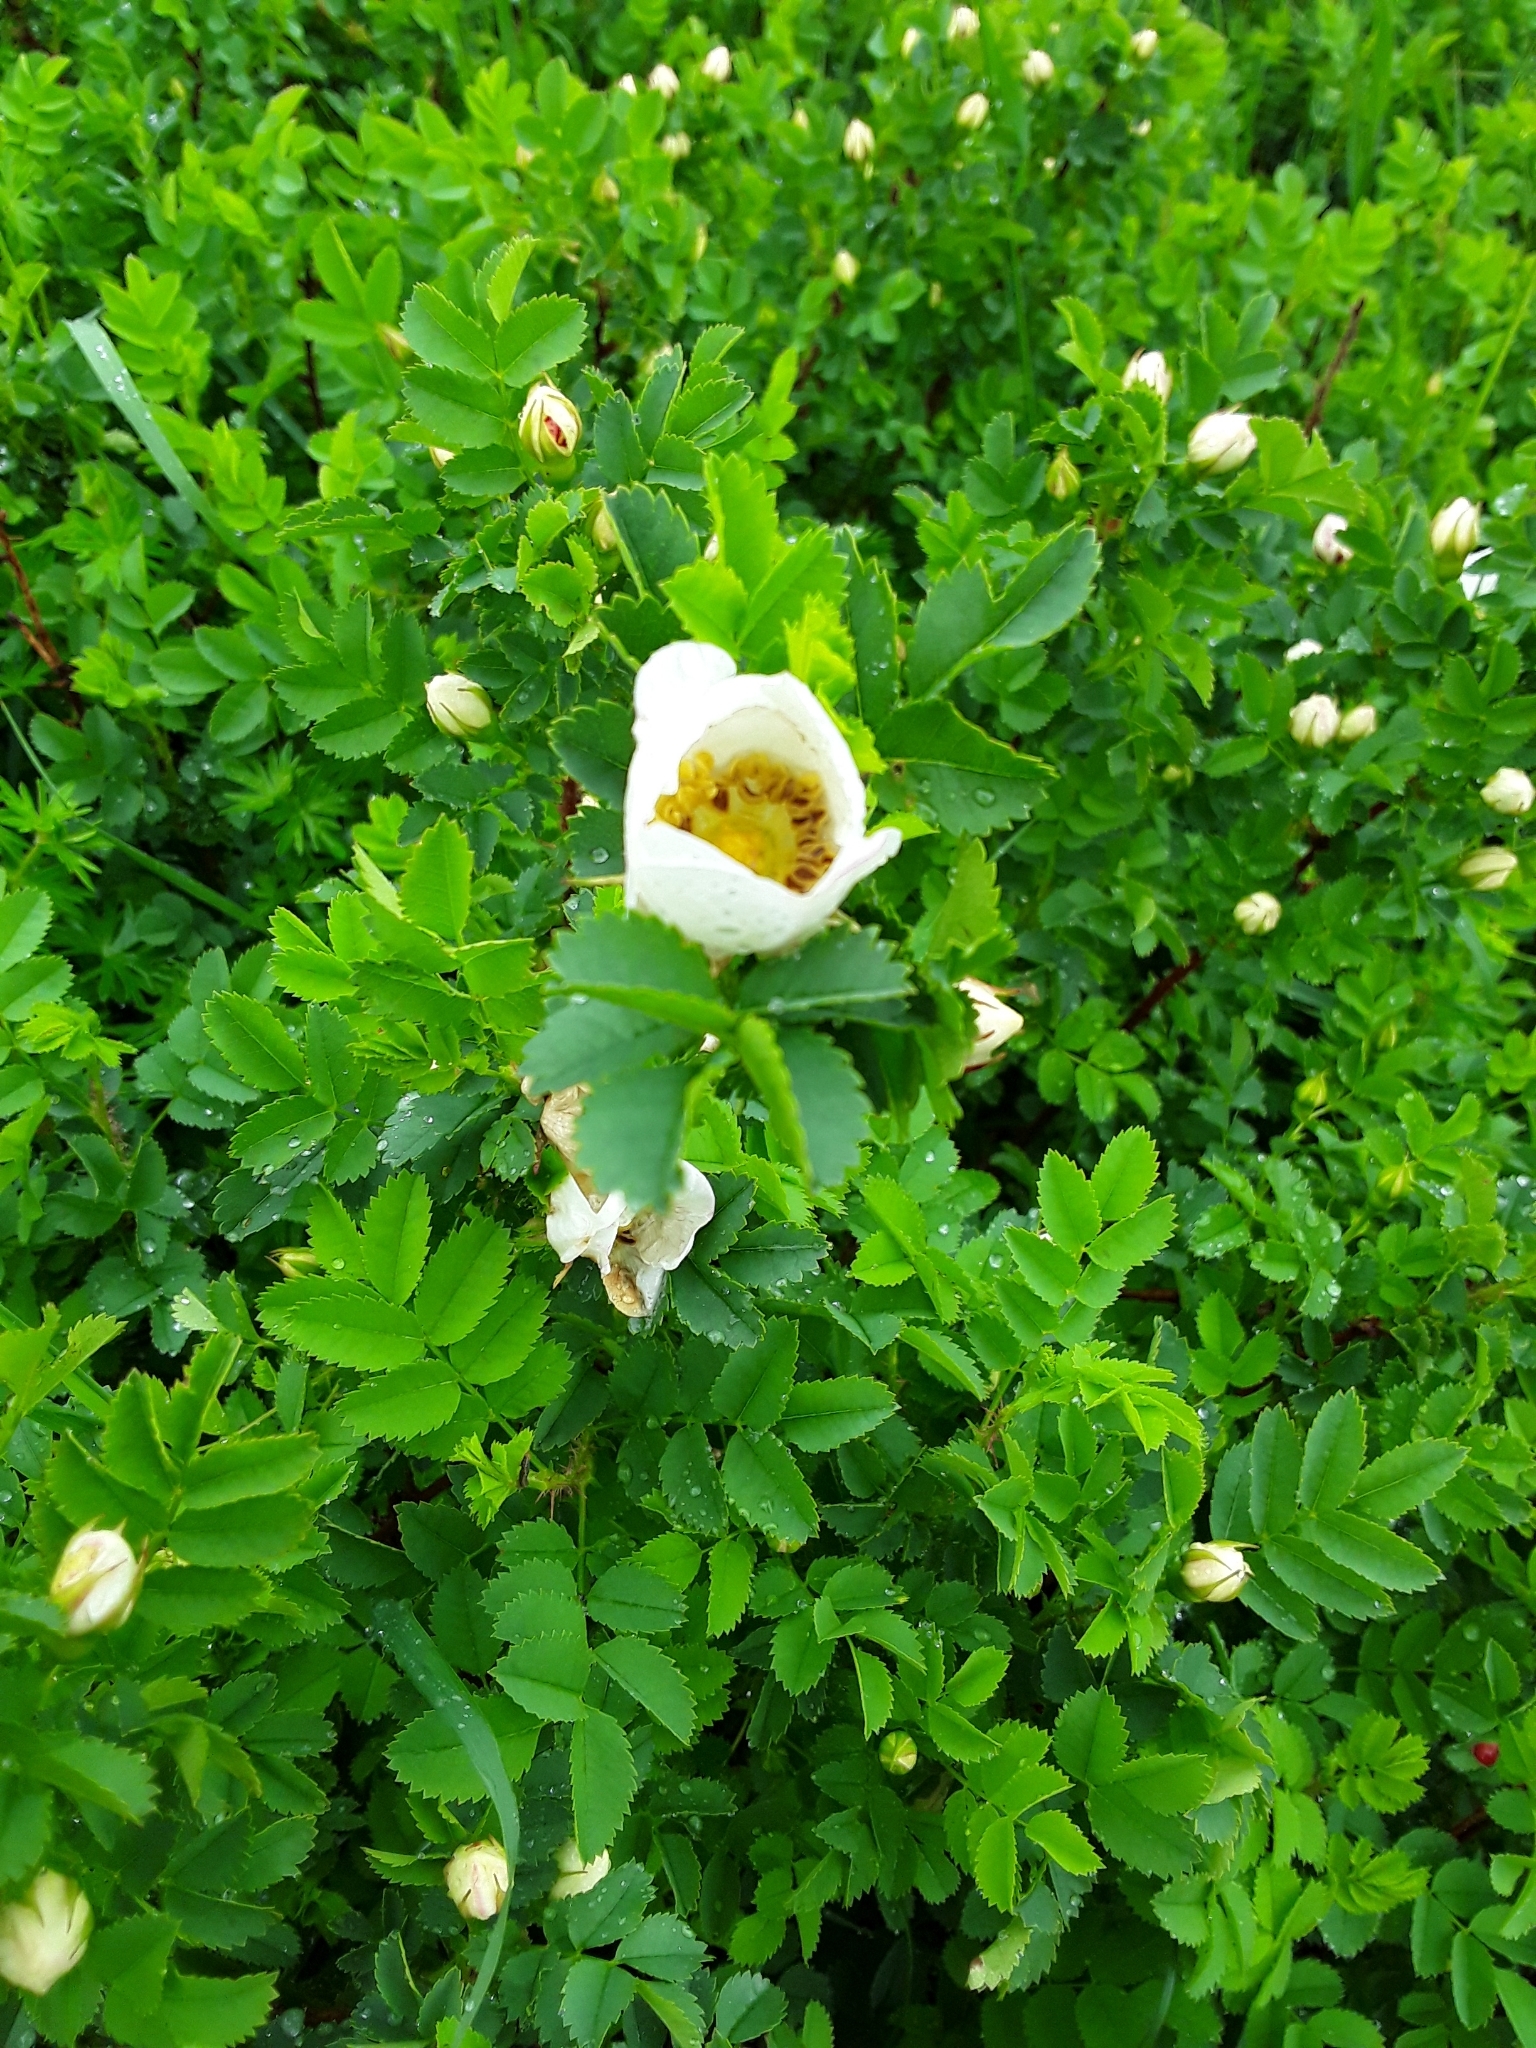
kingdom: Plantae
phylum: Tracheophyta
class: Magnoliopsida
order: Rosales
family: Rosaceae
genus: Rosa
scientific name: Rosa spinosissima
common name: Burnet rose
